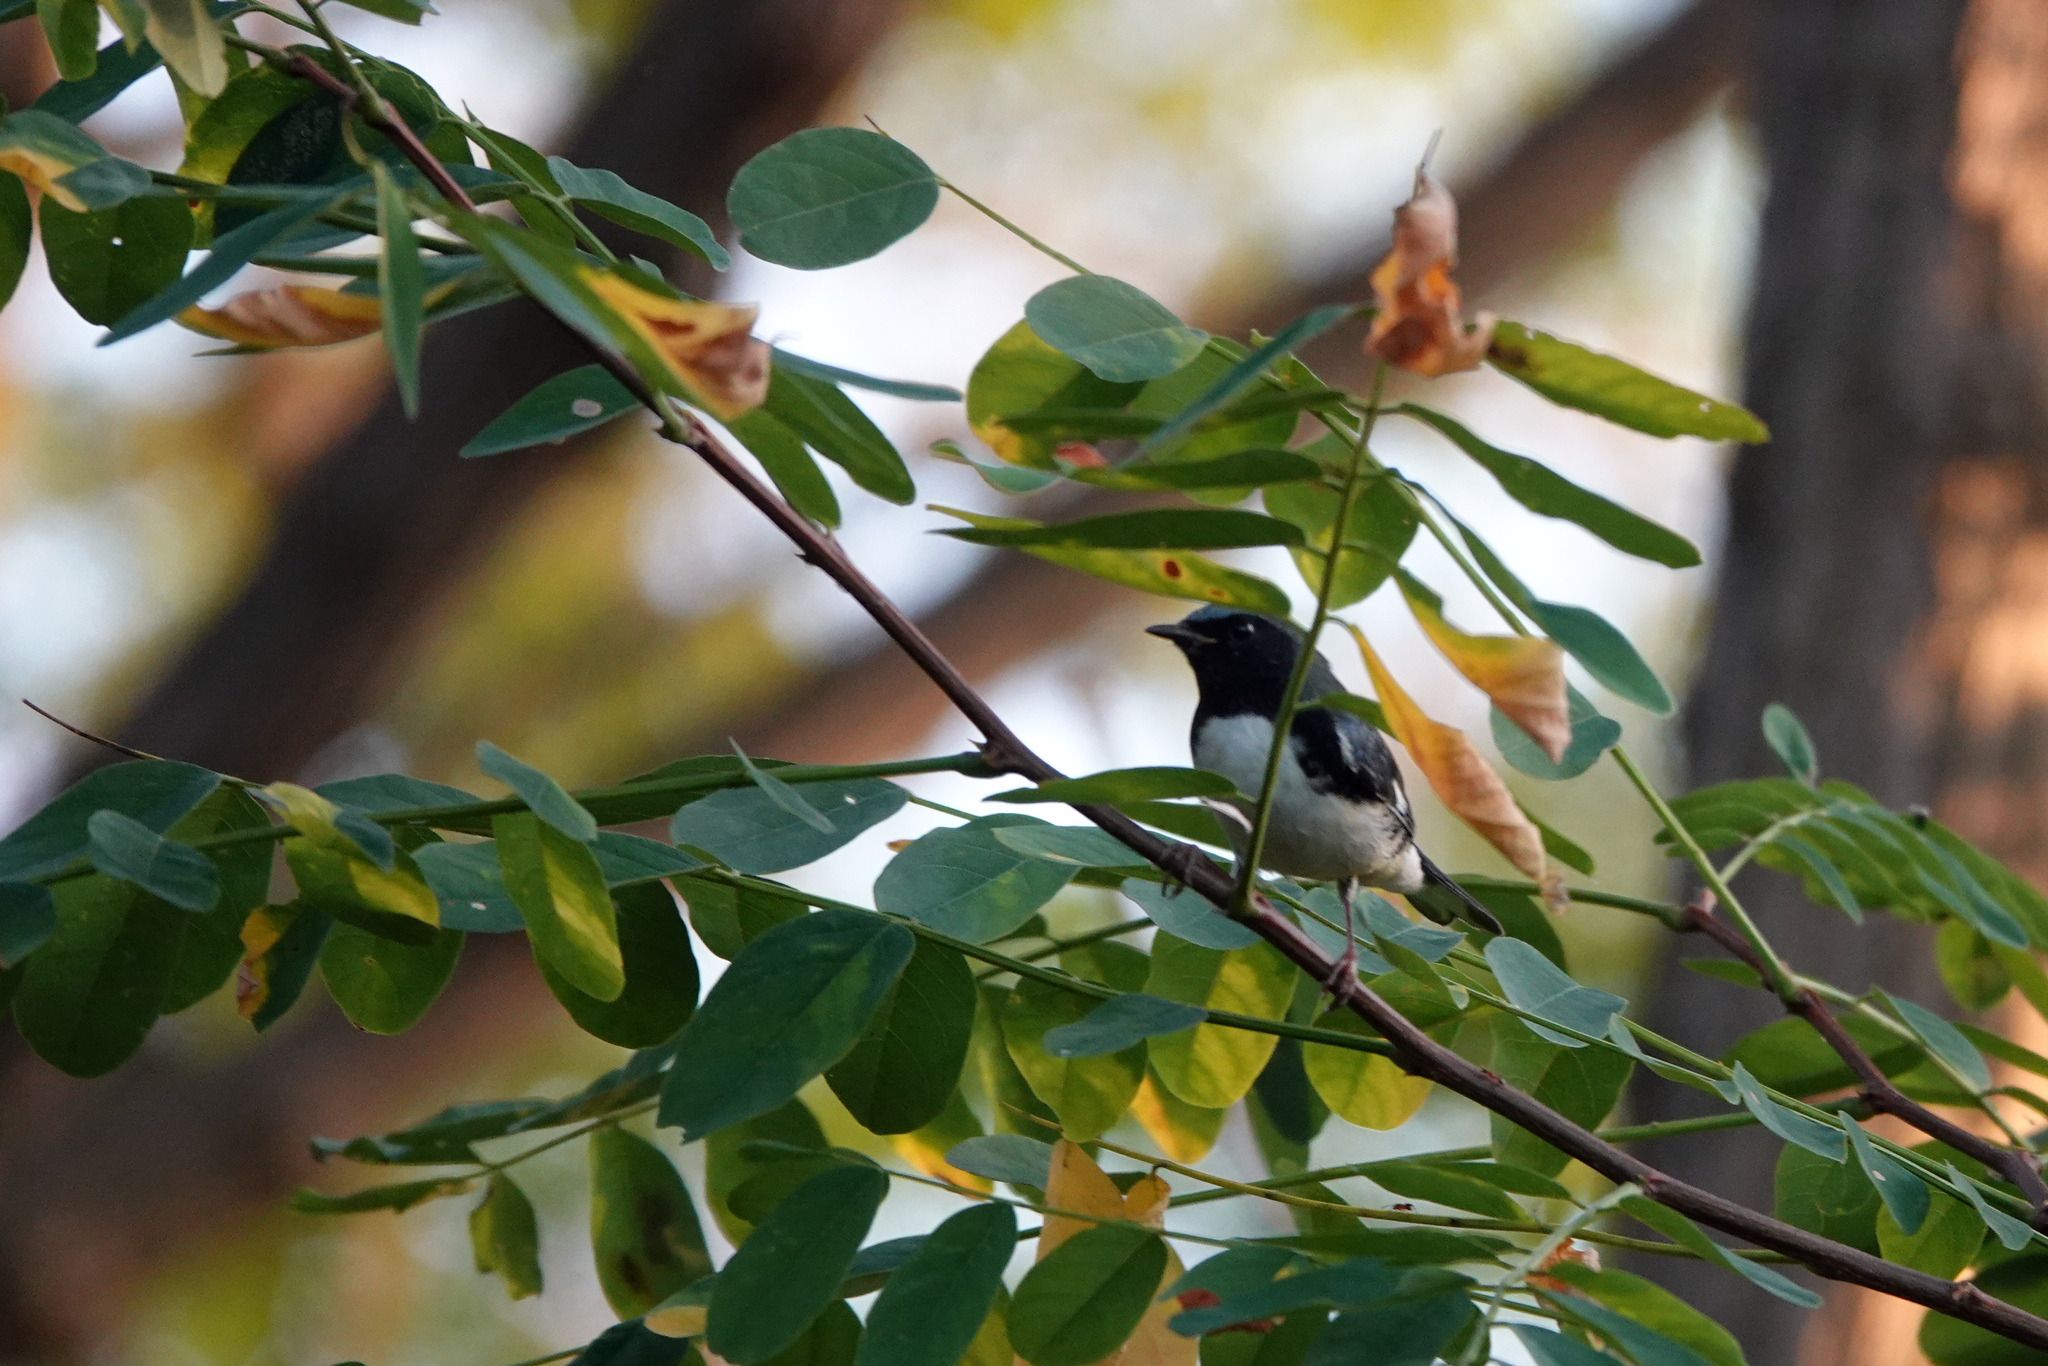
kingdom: Animalia
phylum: Chordata
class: Aves
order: Passeriformes
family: Parulidae
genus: Setophaga
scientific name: Setophaga caerulescens
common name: Black-throated blue warbler
